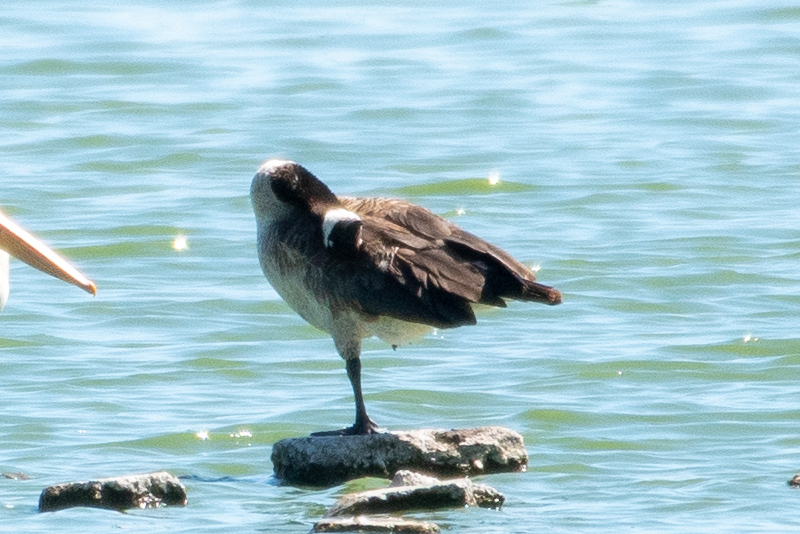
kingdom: Animalia
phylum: Chordata
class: Aves
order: Anseriformes
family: Anatidae
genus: Branta
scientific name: Branta canadensis
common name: Canada goose
